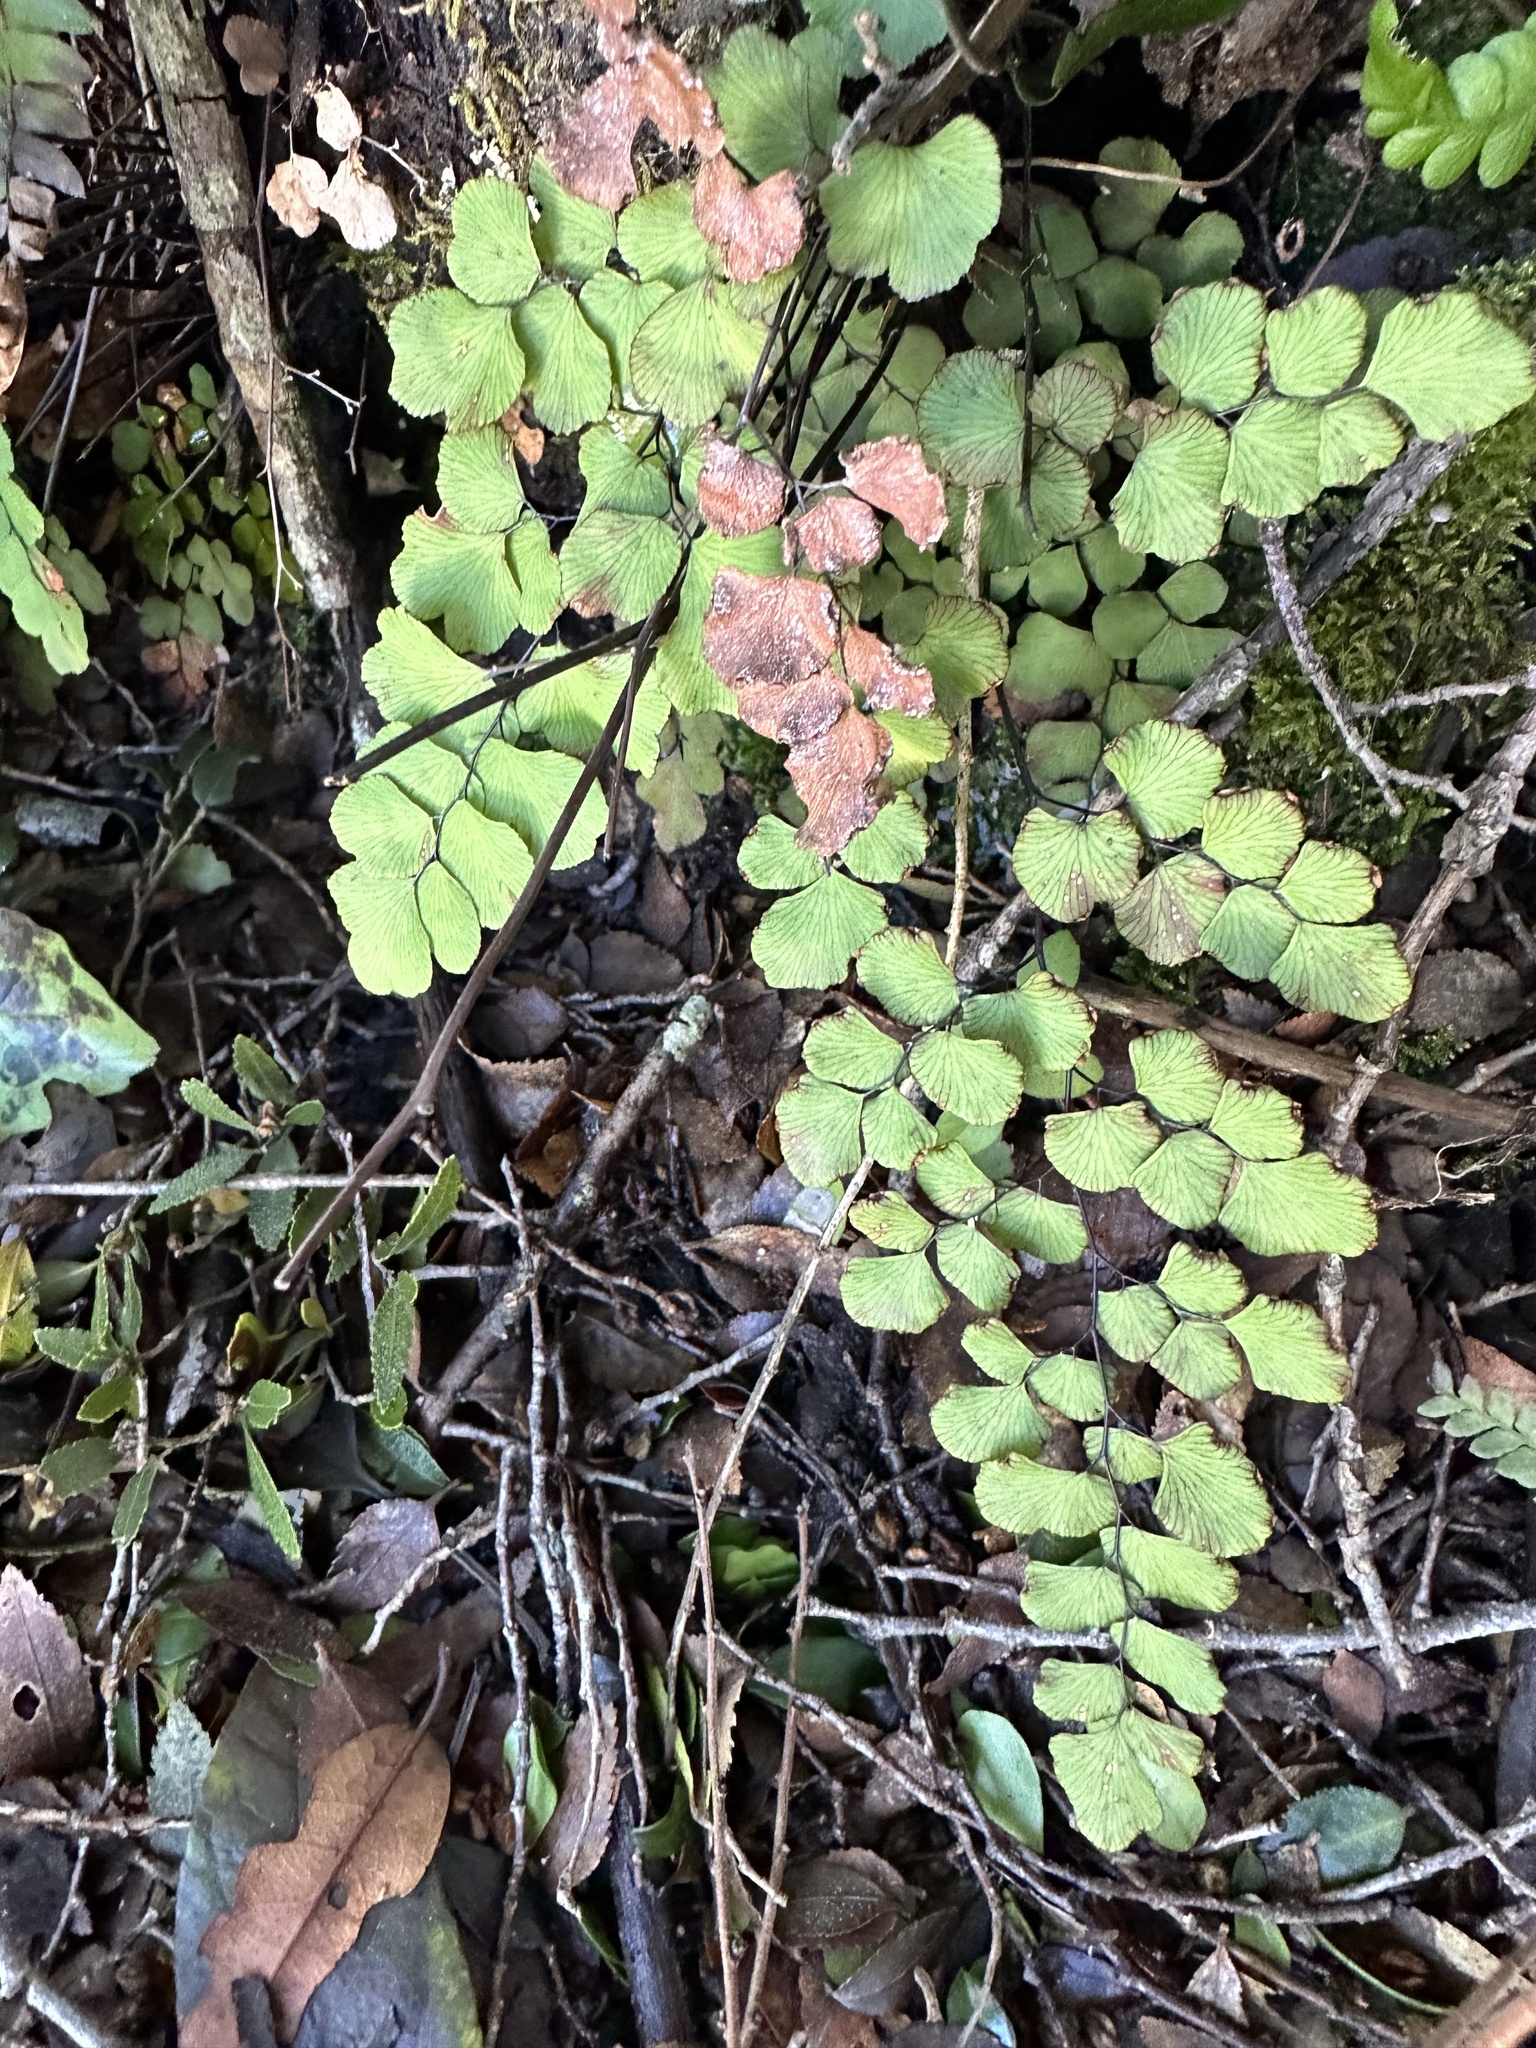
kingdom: Plantae
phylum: Tracheophyta
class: Polypodiopsida
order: Polypodiales
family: Pteridaceae
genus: Adiantum
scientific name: Adiantum chilense
